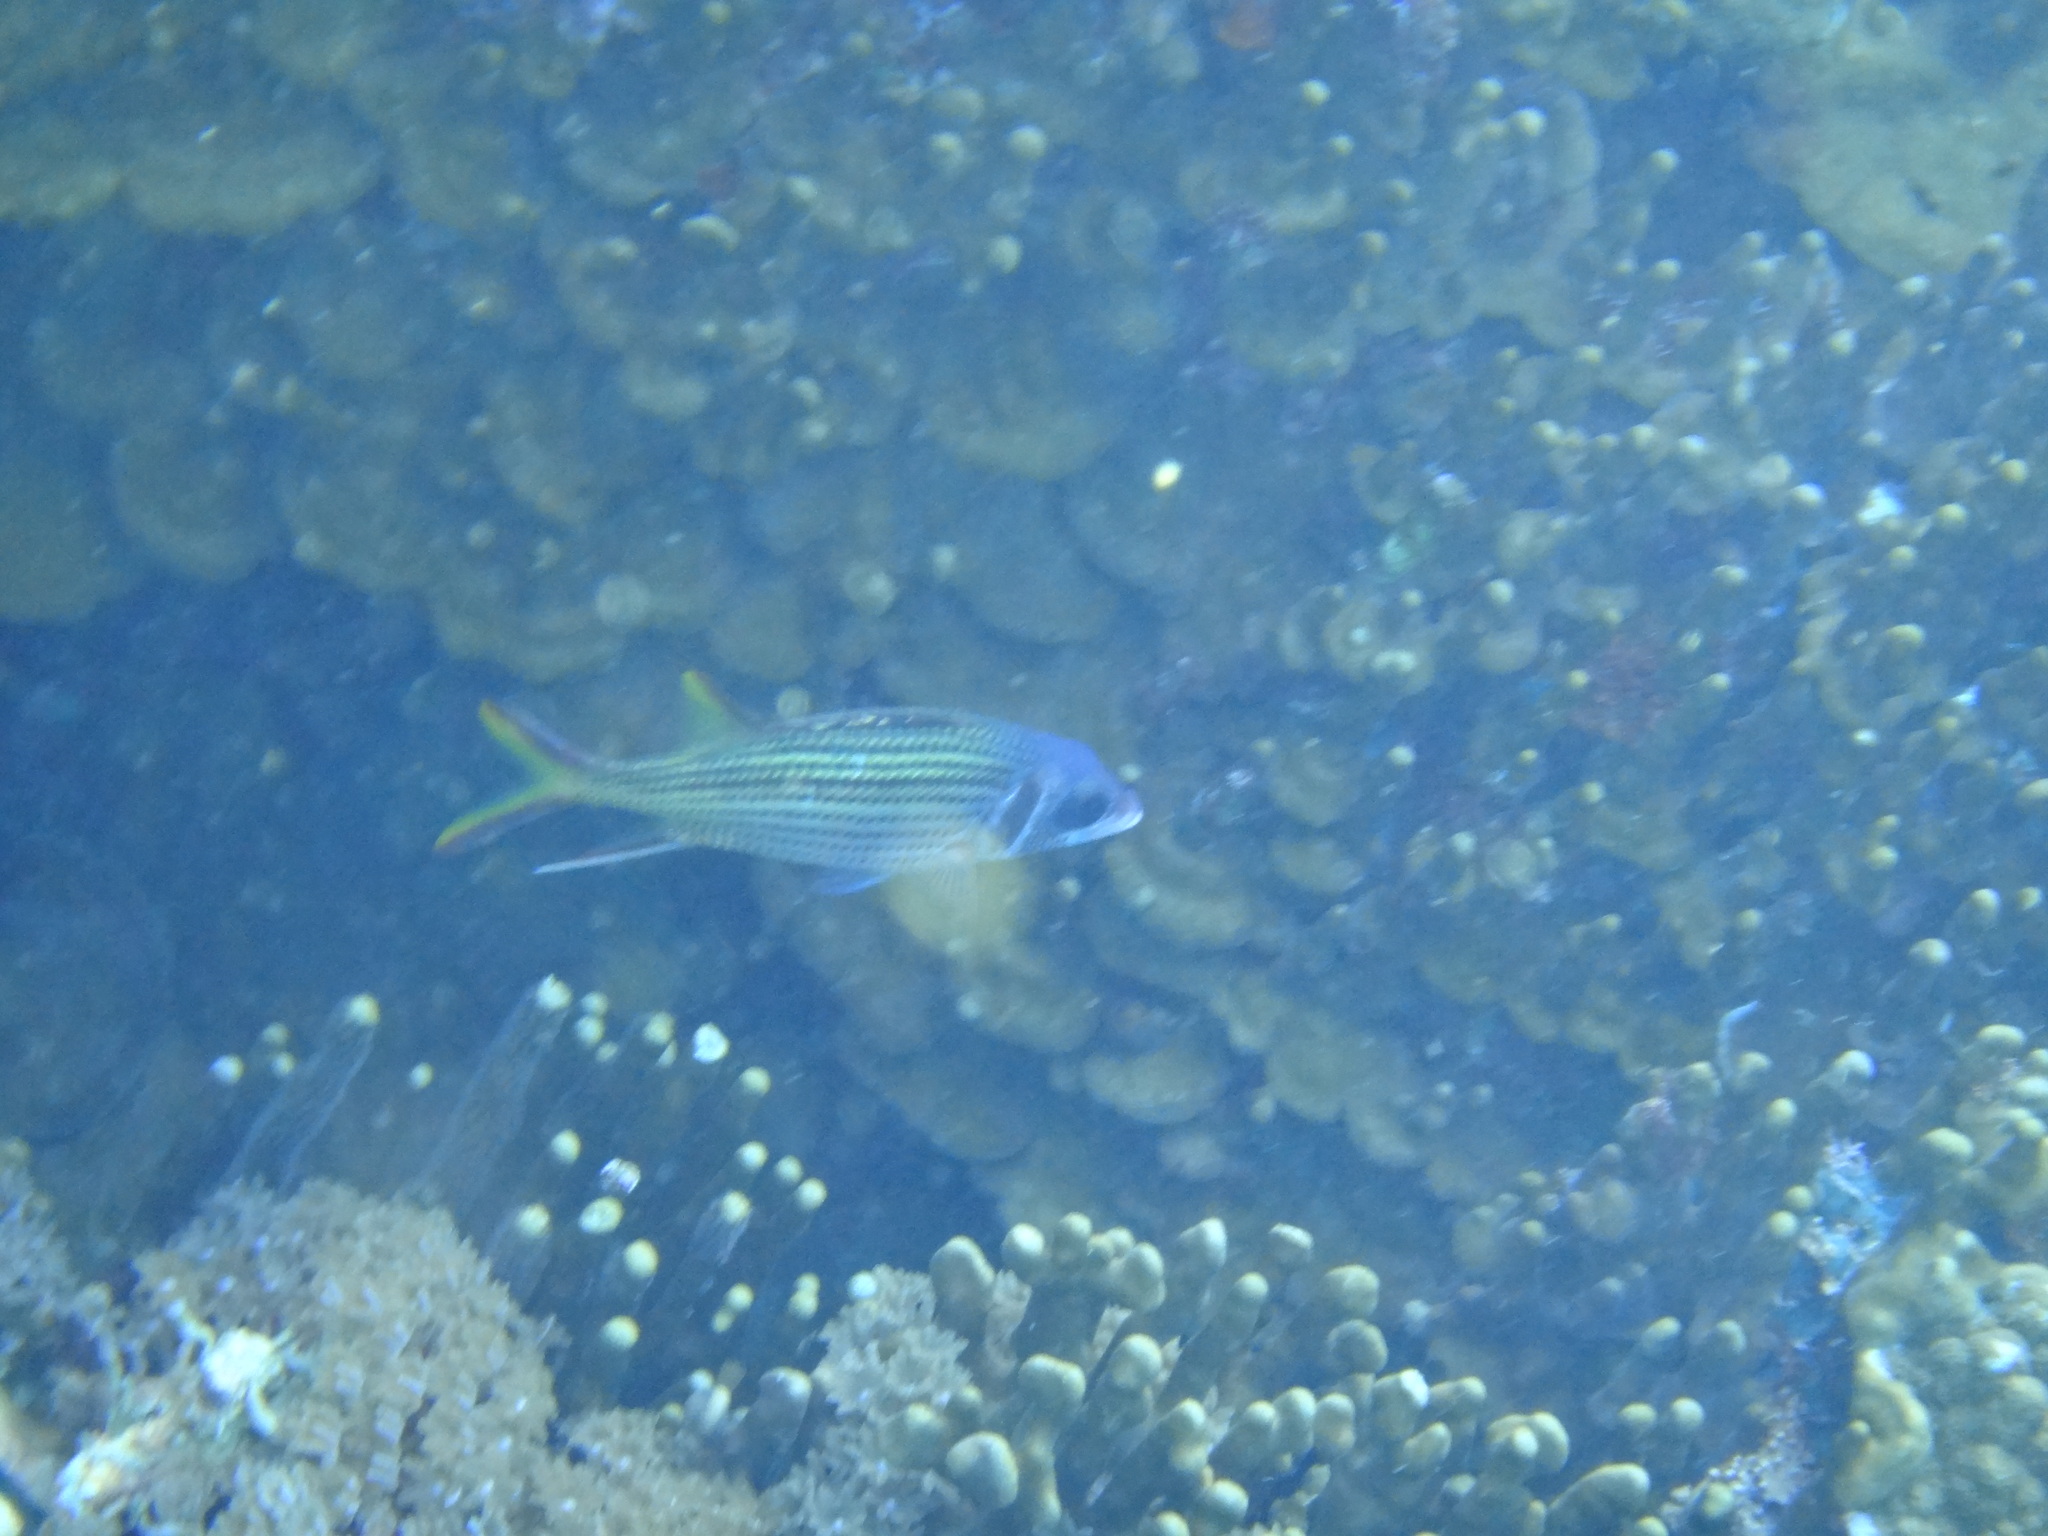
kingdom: Animalia
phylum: Chordata
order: Beryciformes
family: Holocentridae
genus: Neoniphon
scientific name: Neoniphon sammara
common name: Sammara squirrelfish
